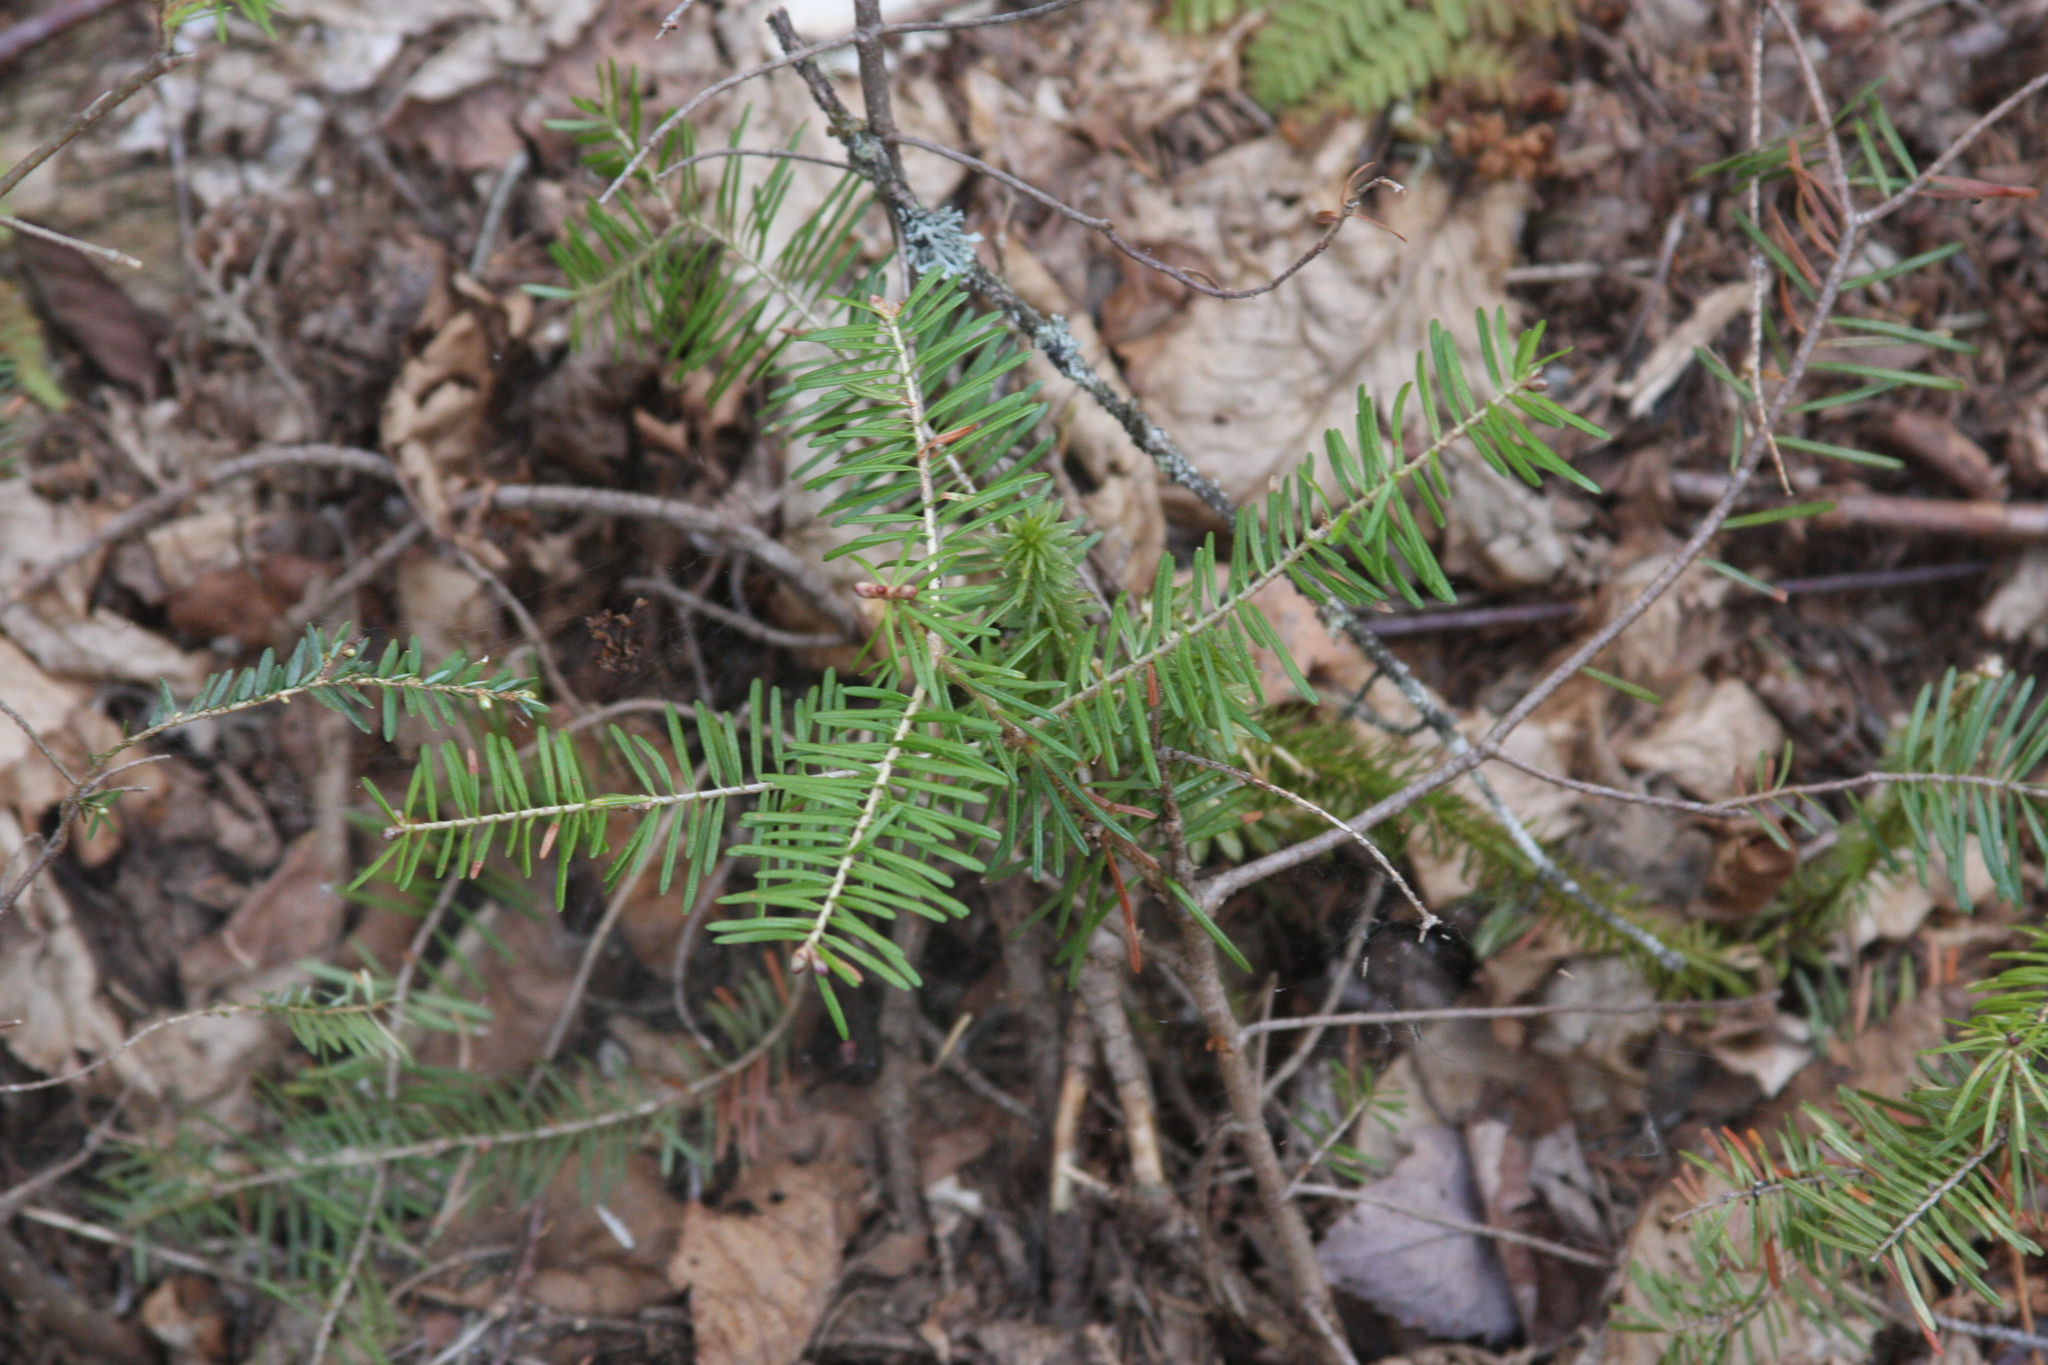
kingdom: Plantae
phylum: Tracheophyta
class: Pinopsida
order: Pinales
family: Pinaceae
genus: Abies
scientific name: Abies balsamea
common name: Balsam fir
